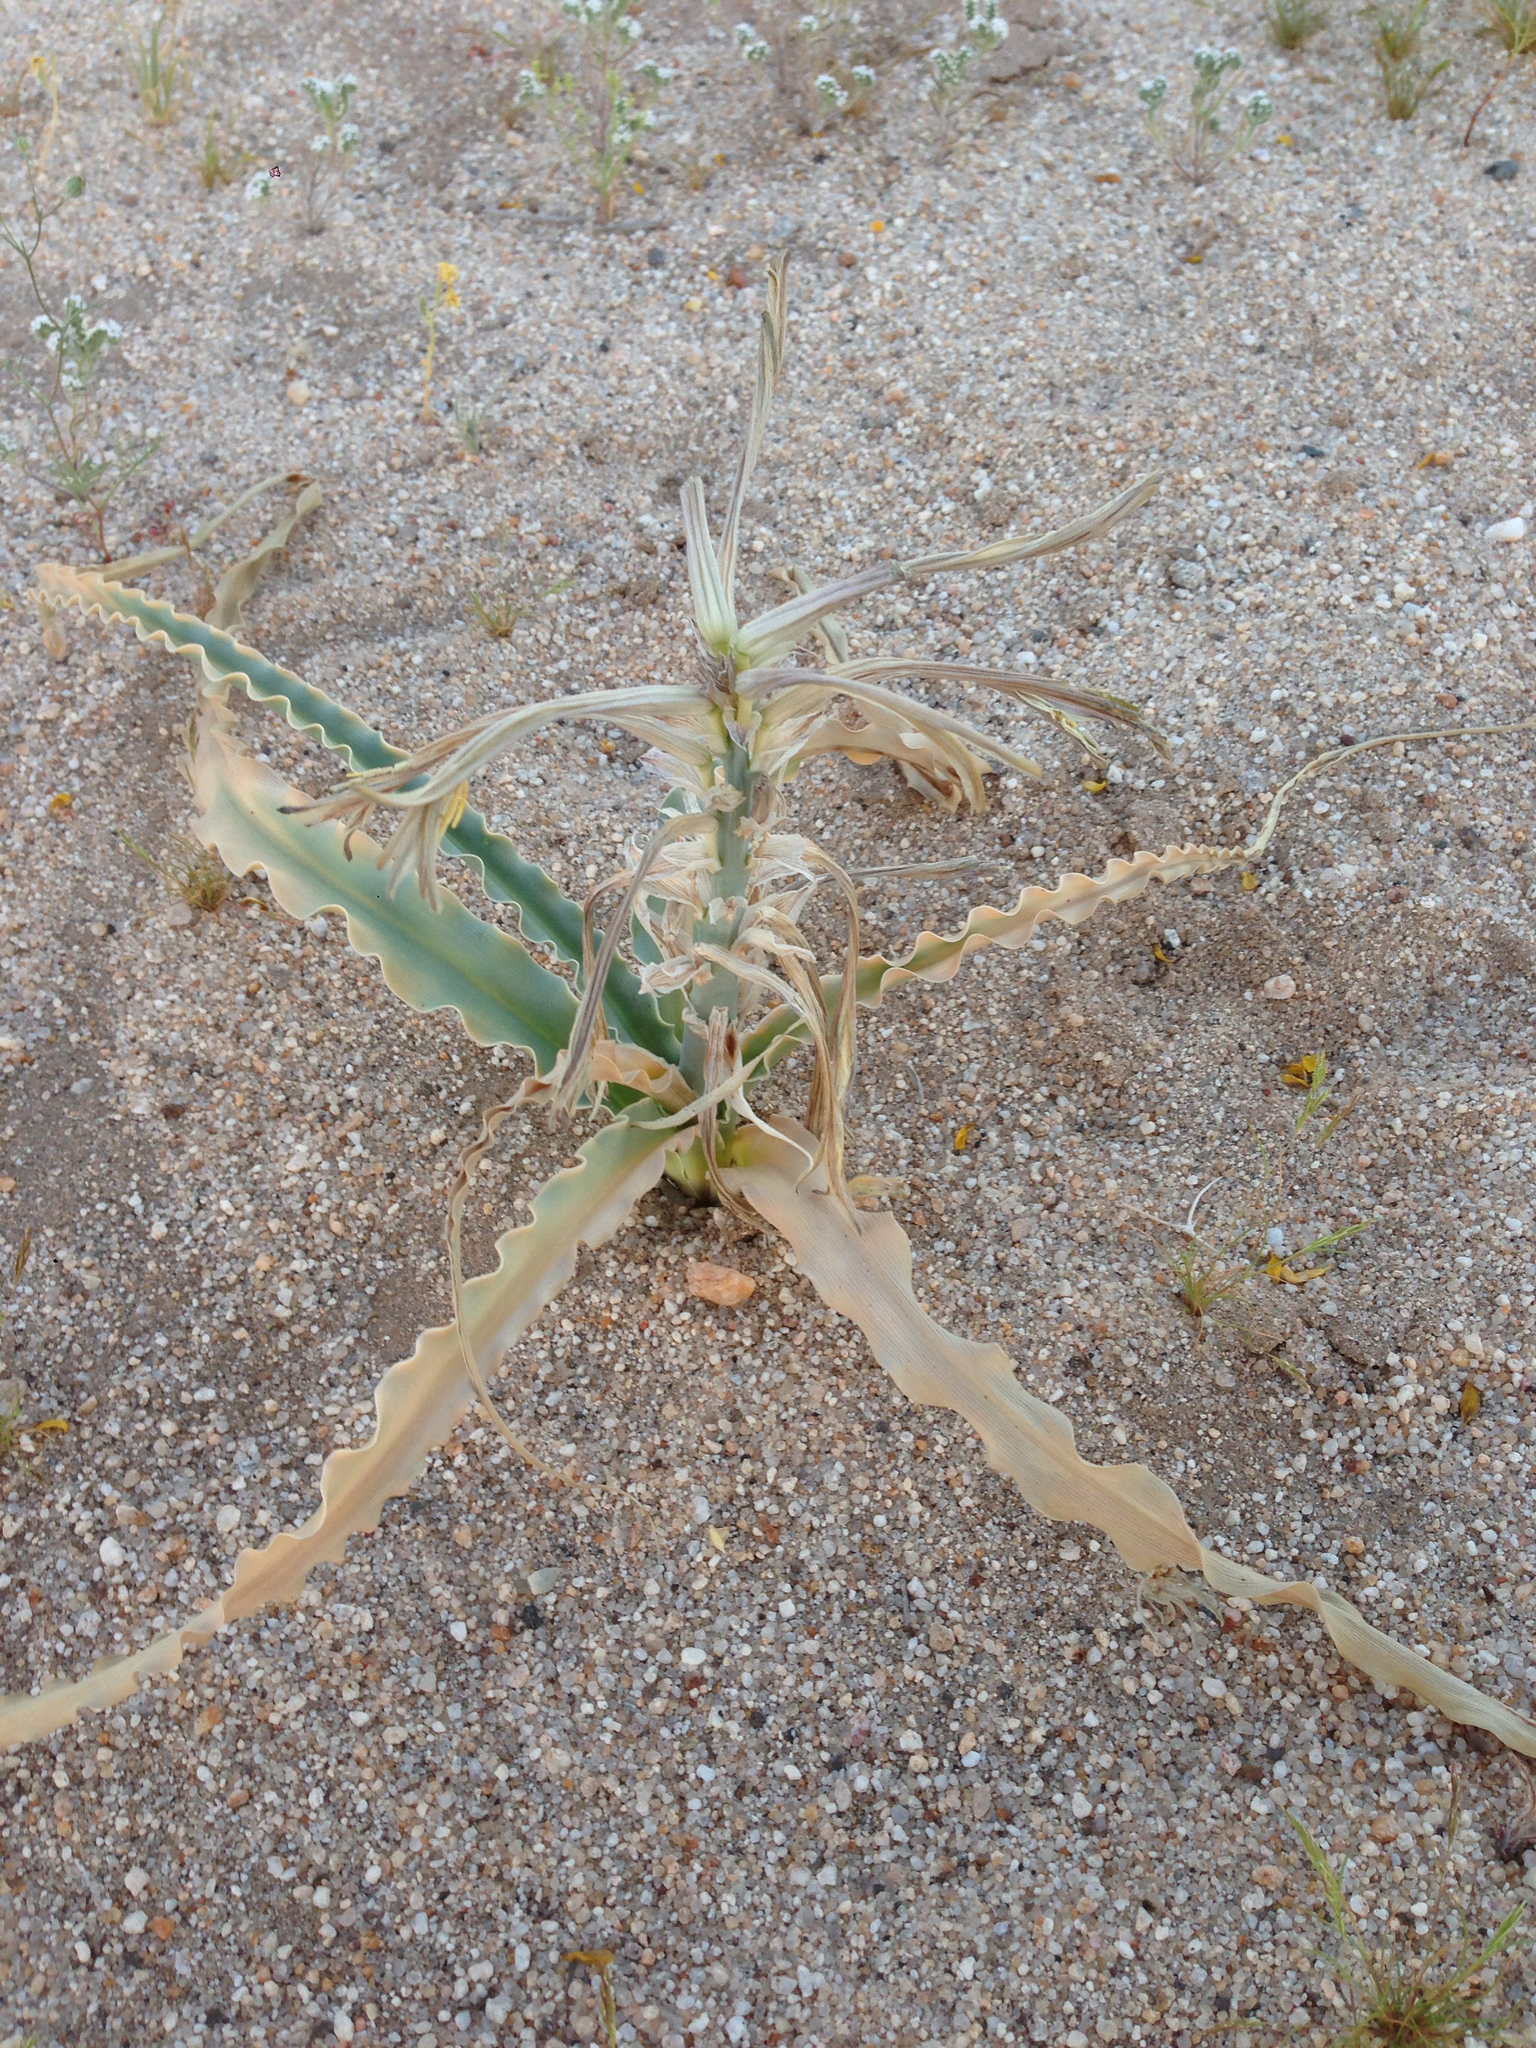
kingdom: Plantae
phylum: Tracheophyta
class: Liliopsida
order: Asparagales
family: Asparagaceae
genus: Hesperocallis
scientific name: Hesperocallis undulata
